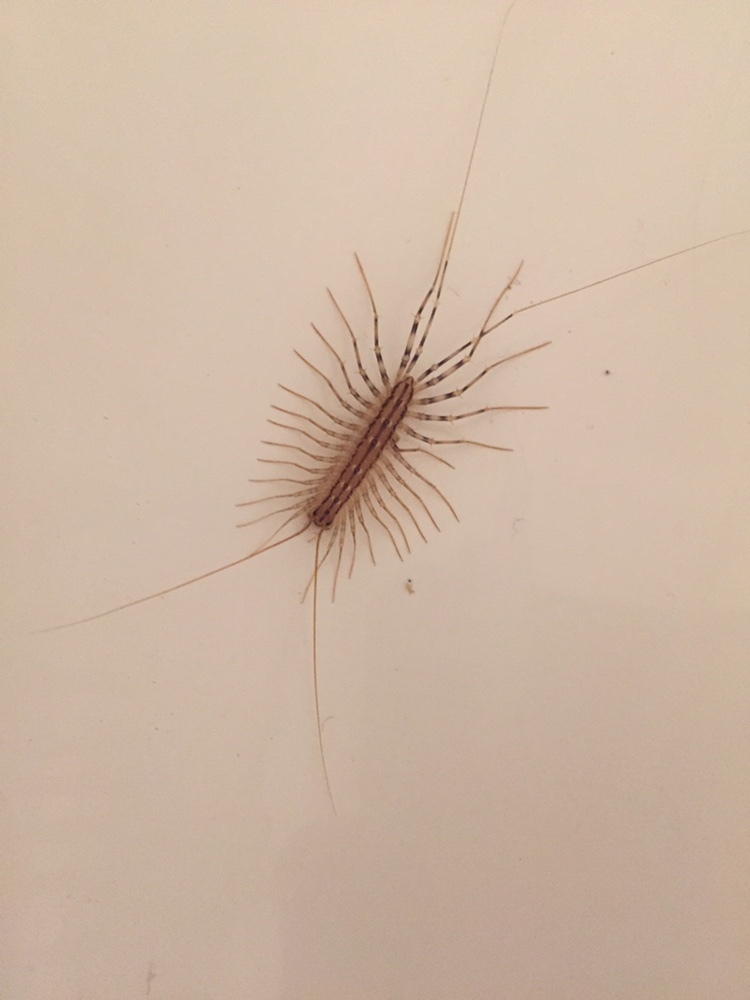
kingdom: Animalia
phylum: Arthropoda
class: Chilopoda
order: Scutigeromorpha
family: Scutigeridae
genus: Scutigera
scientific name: Scutigera coleoptrata
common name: House centipede
